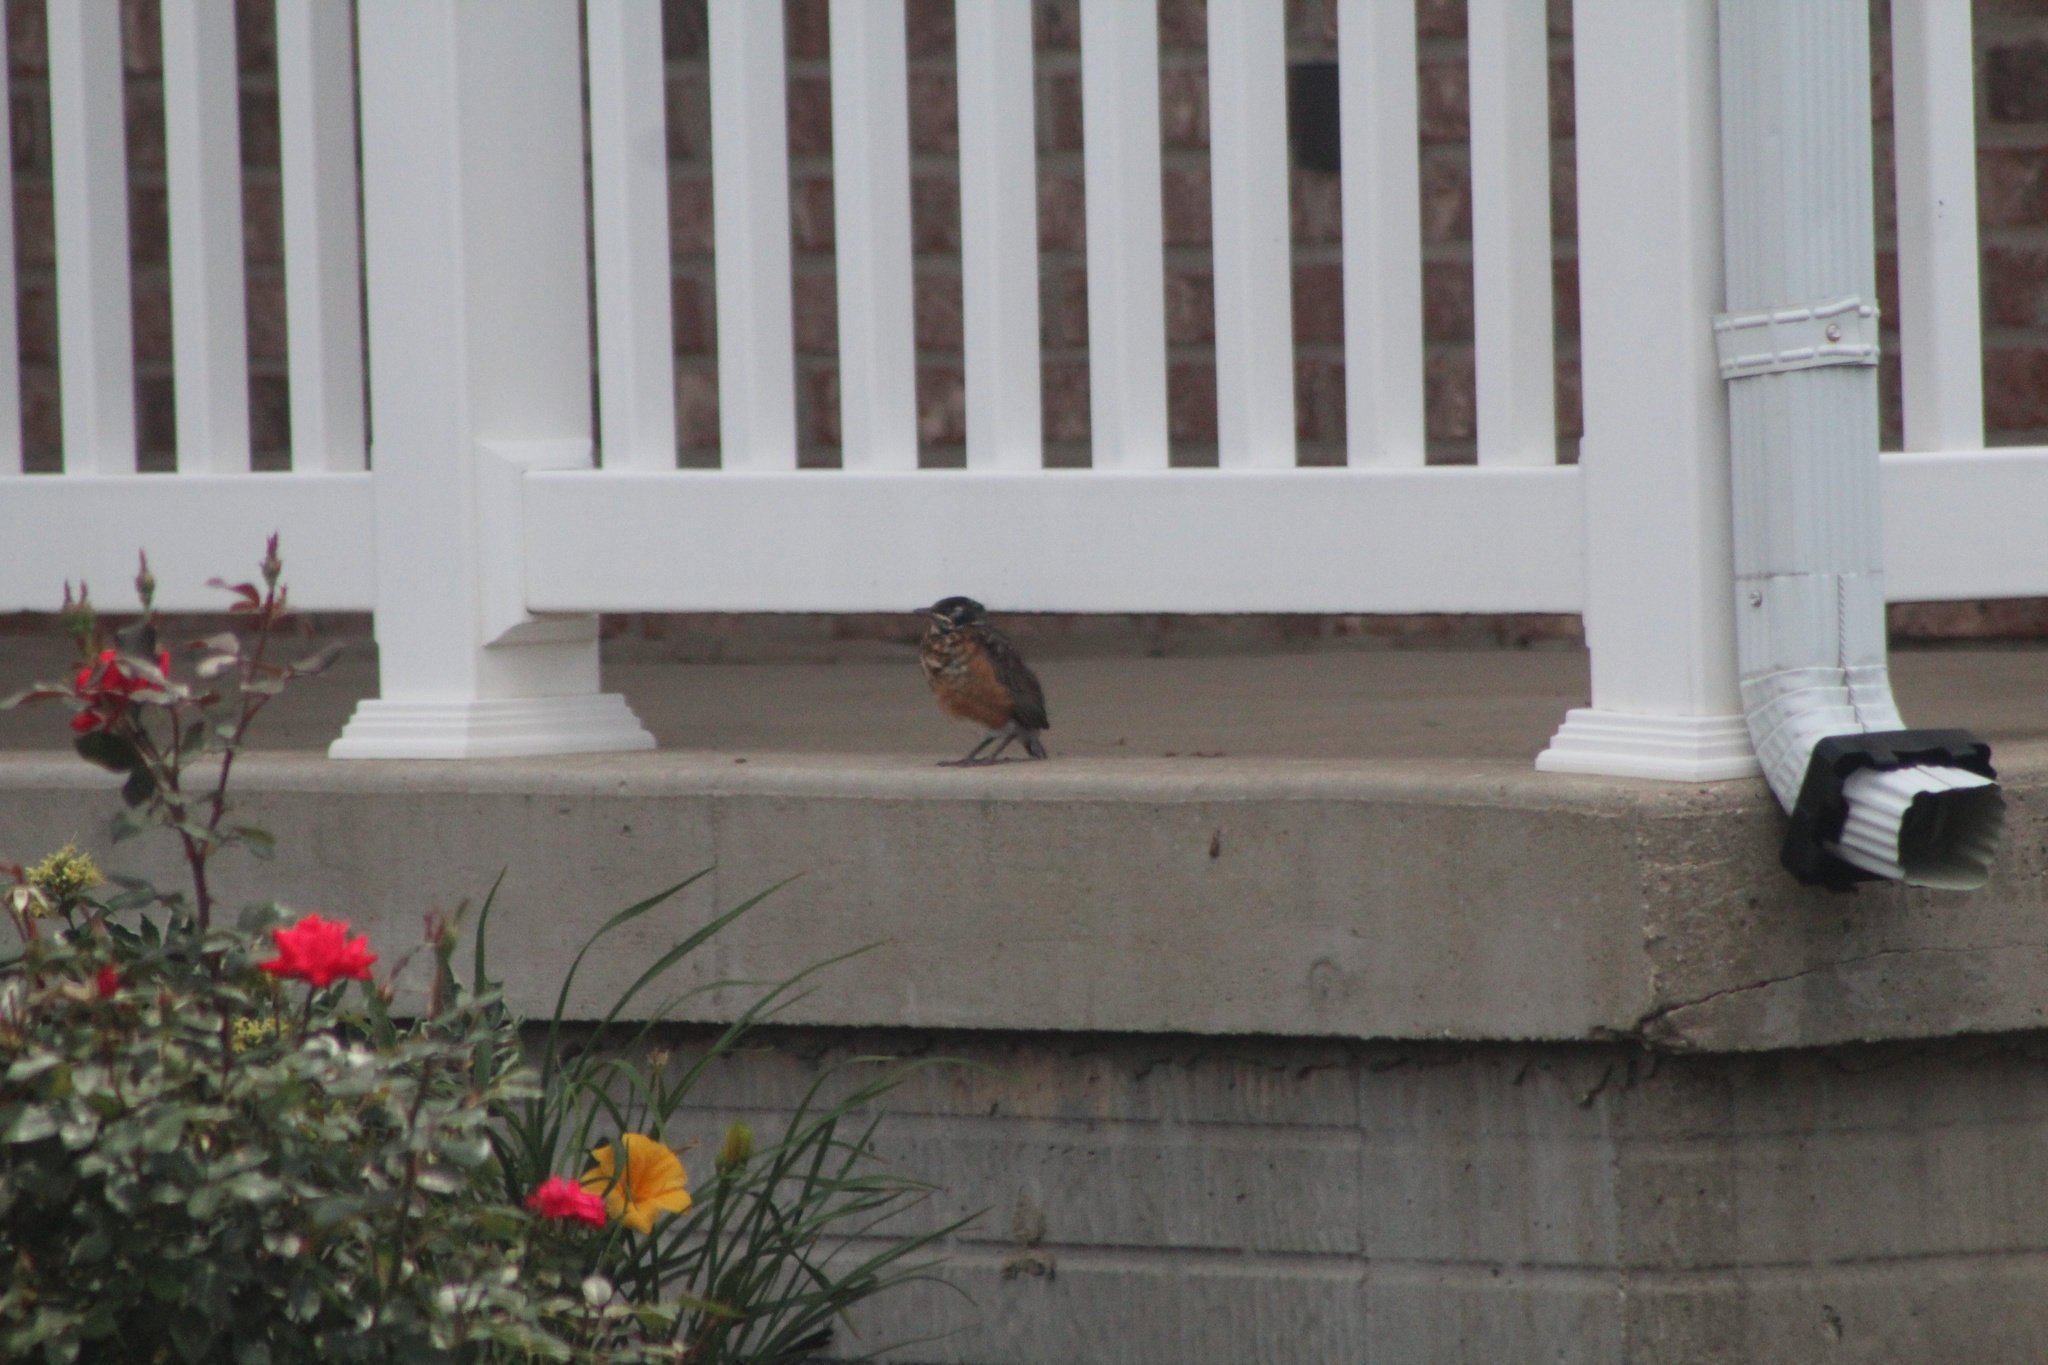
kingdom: Animalia
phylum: Chordata
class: Aves
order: Passeriformes
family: Turdidae
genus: Turdus
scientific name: Turdus migratorius
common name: American robin
